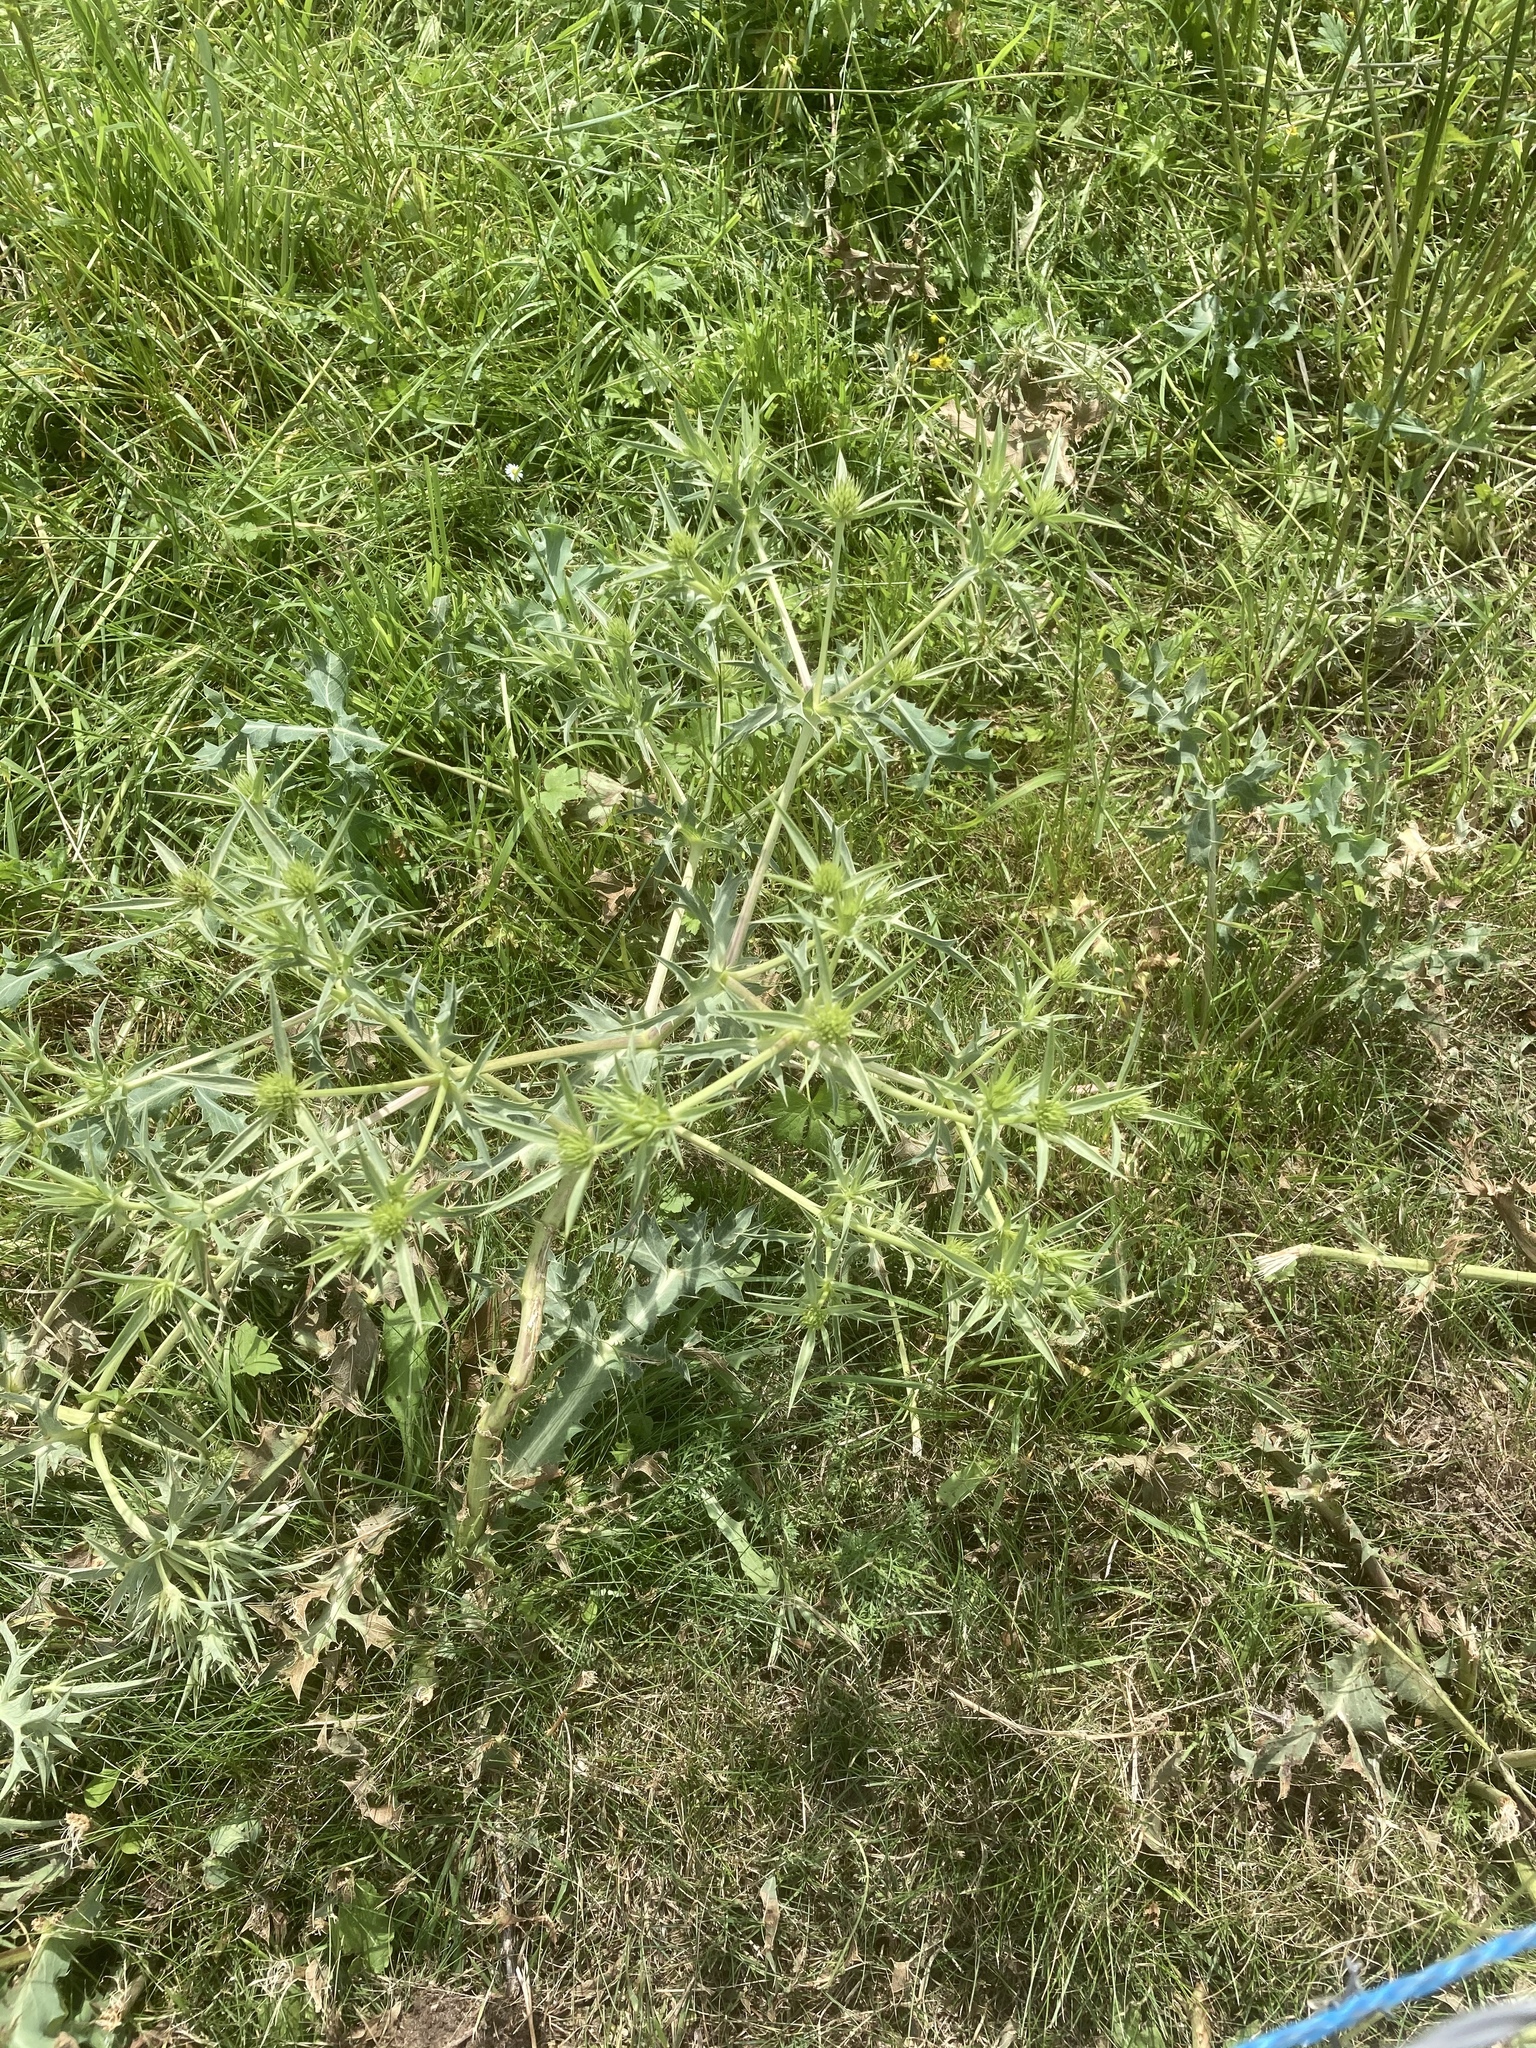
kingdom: Plantae
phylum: Tracheophyta
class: Magnoliopsida
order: Apiales
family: Apiaceae
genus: Eryngium
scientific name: Eryngium campestre
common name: Field eryngo
